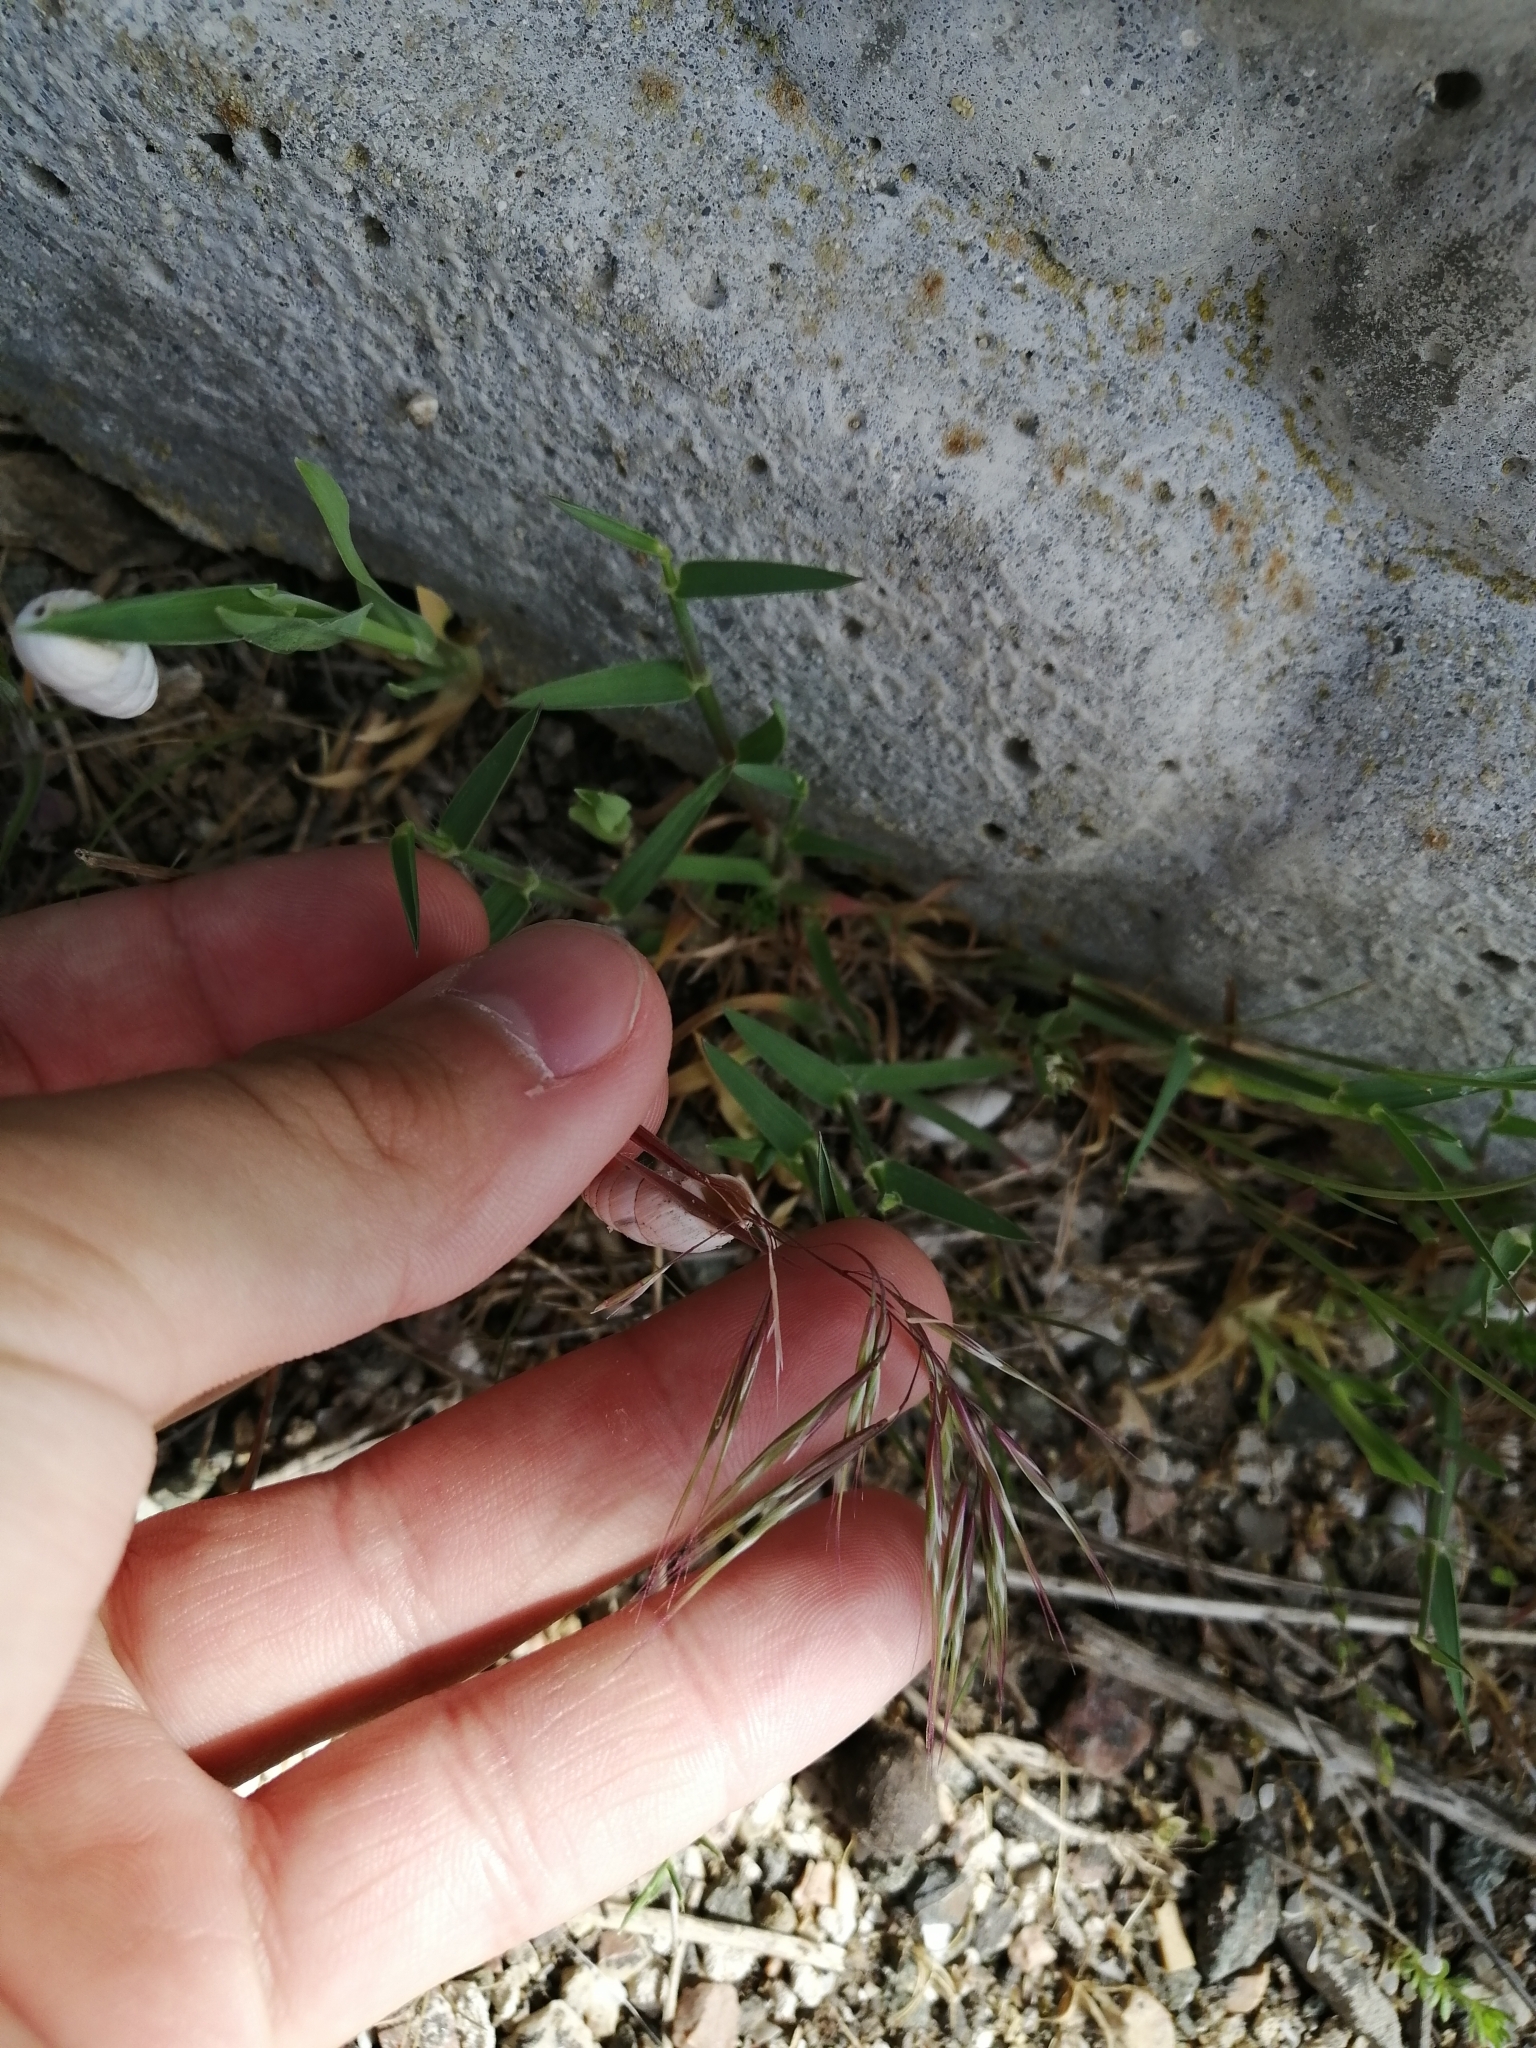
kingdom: Plantae
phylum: Tracheophyta
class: Liliopsida
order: Poales
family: Poaceae
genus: Bromus
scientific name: Bromus tectorum
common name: Cheatgrass
